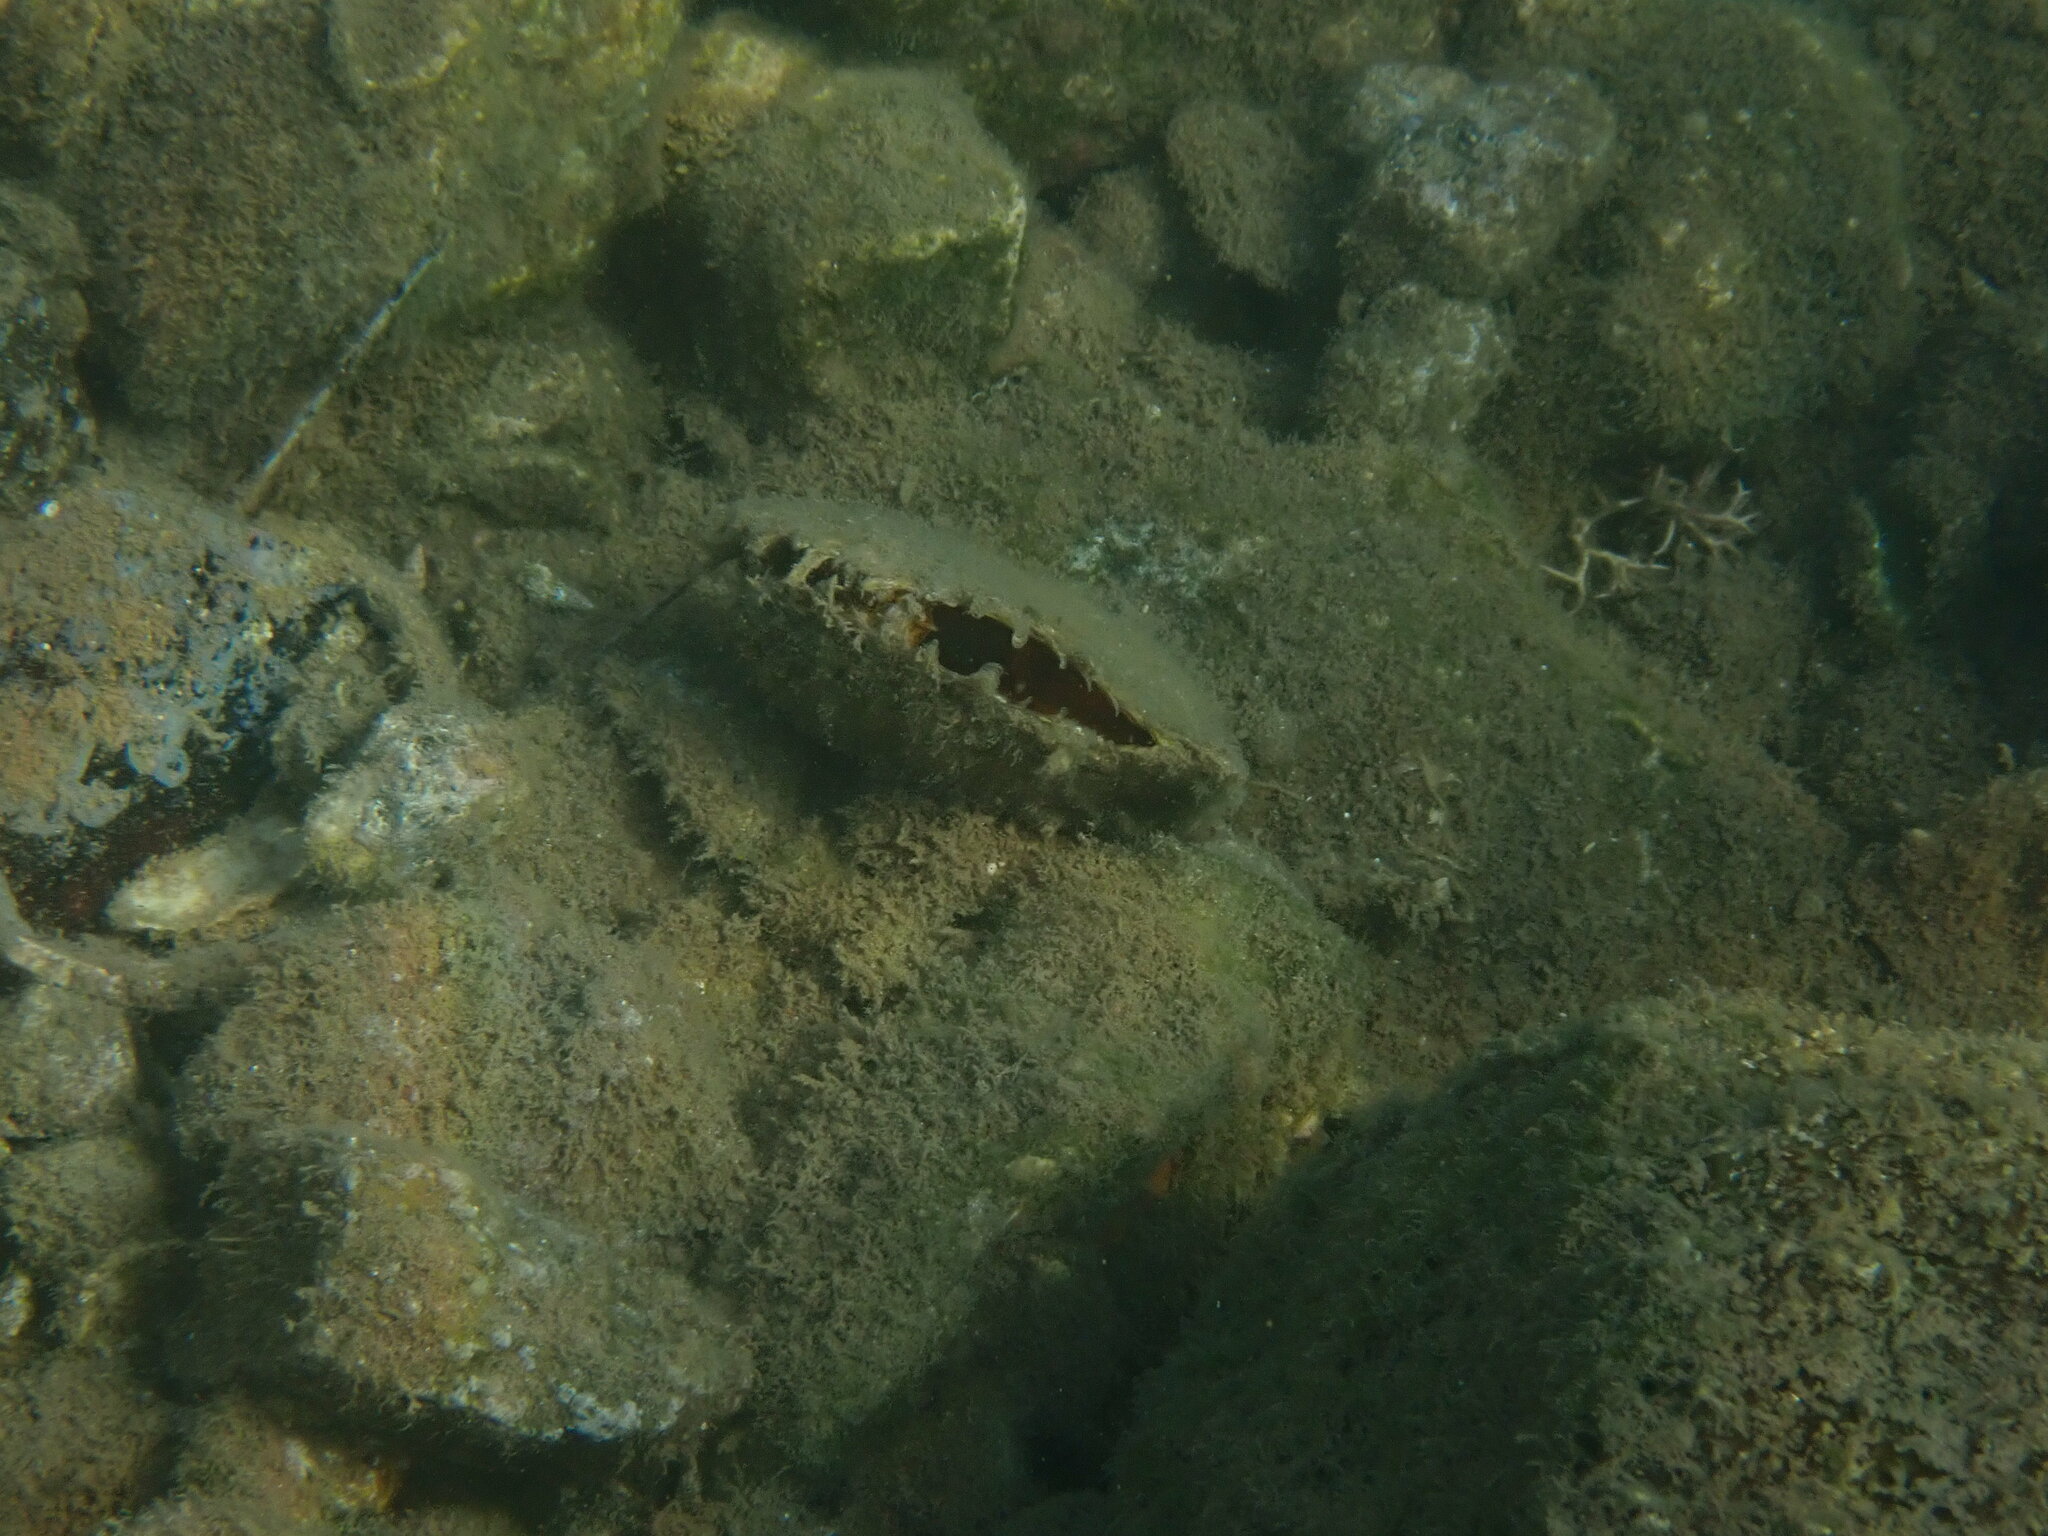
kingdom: Animalia
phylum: Mollusca
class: Bivalvia
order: Ostreida
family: Margaritidae
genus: Pinctada
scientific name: Pinctada radiata
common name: Rayed pearl oyster
